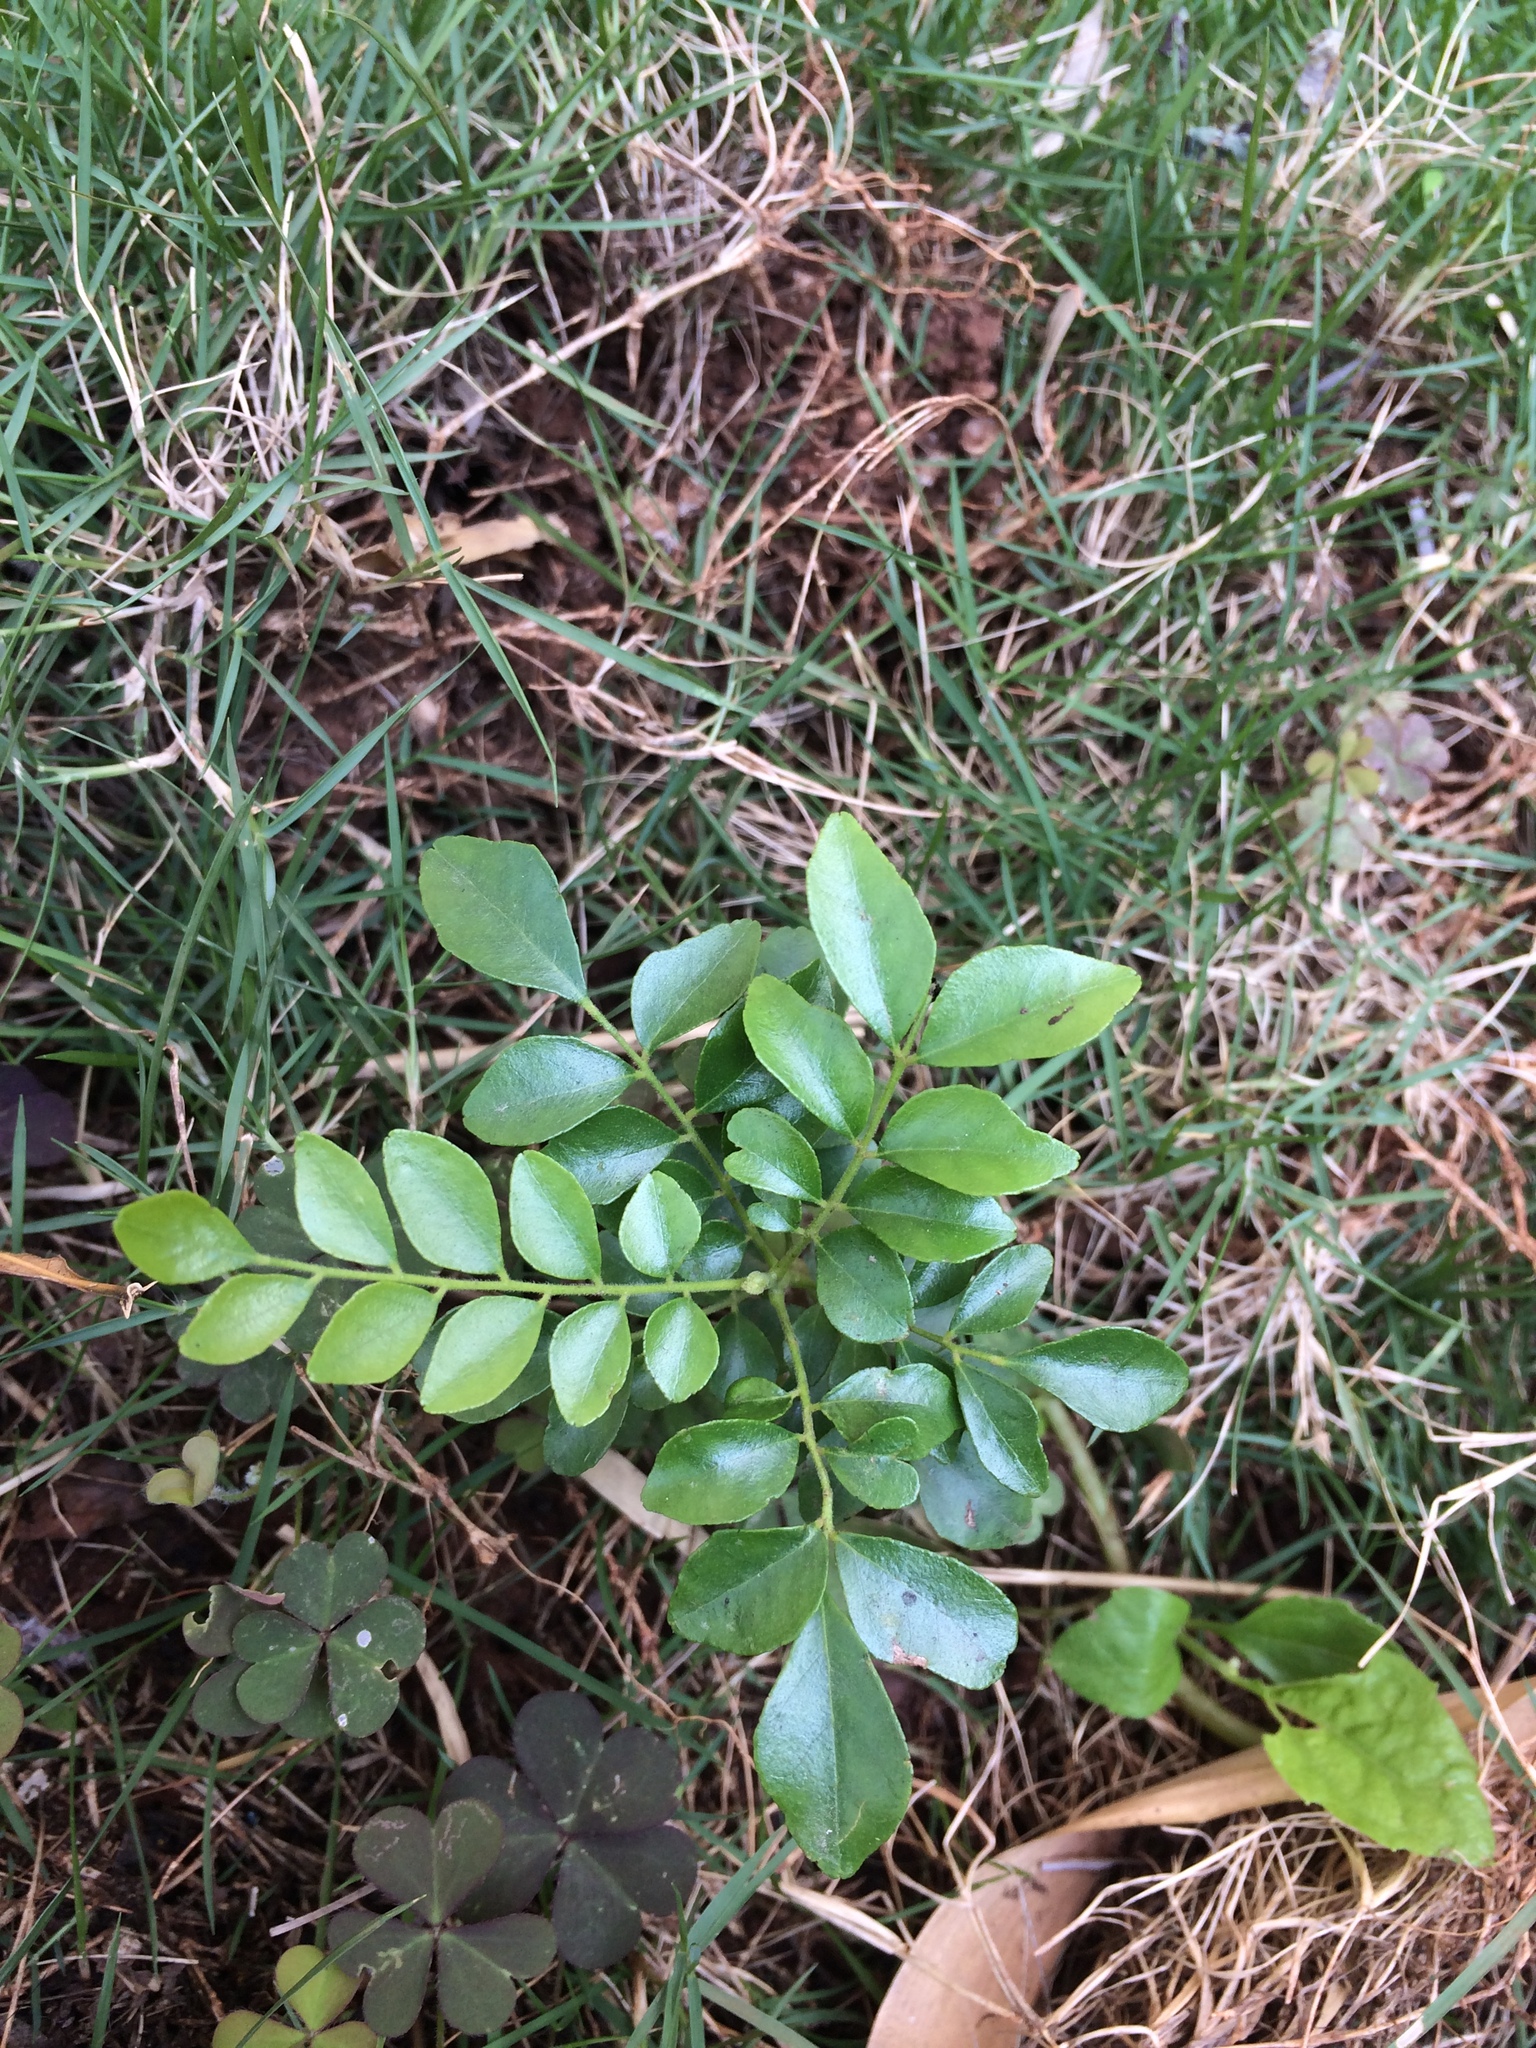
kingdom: Plantae
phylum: Tracheophyta
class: Magnoliopsida
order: Sapindales
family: Rutaceae
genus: Murraya
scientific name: Murraya koenigii
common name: Curry-plant
